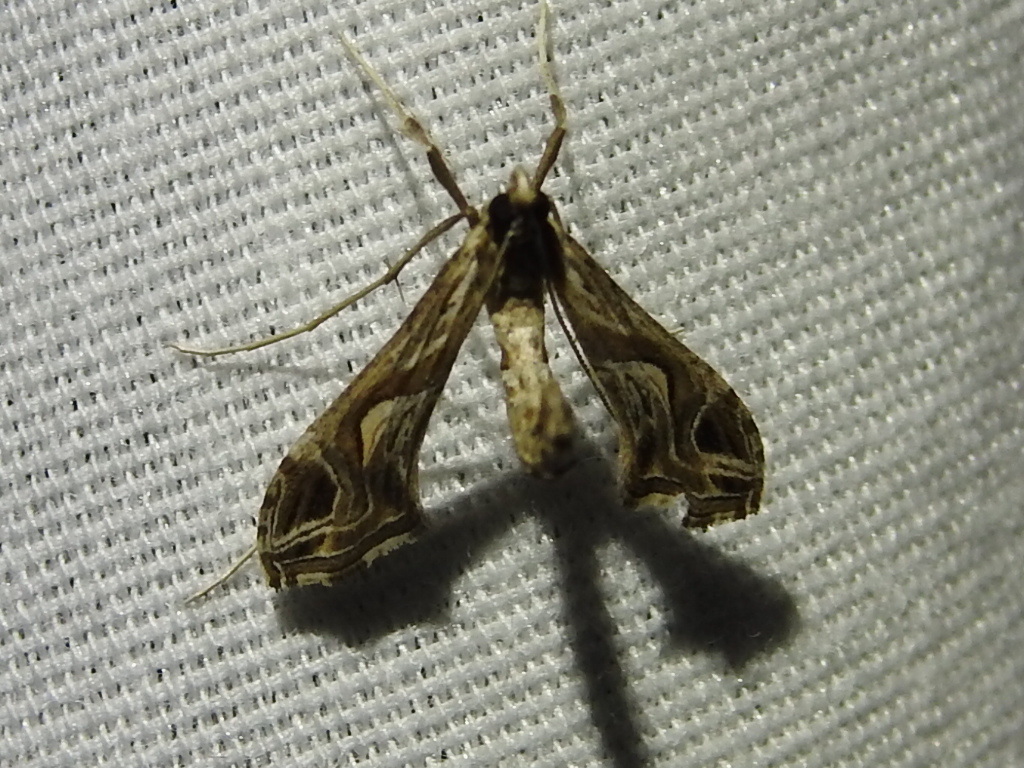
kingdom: Animalia
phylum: Arthropoda
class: Insecta
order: Lepidoptera
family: Crambidae
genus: Lineodes
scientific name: Lineodes integra
